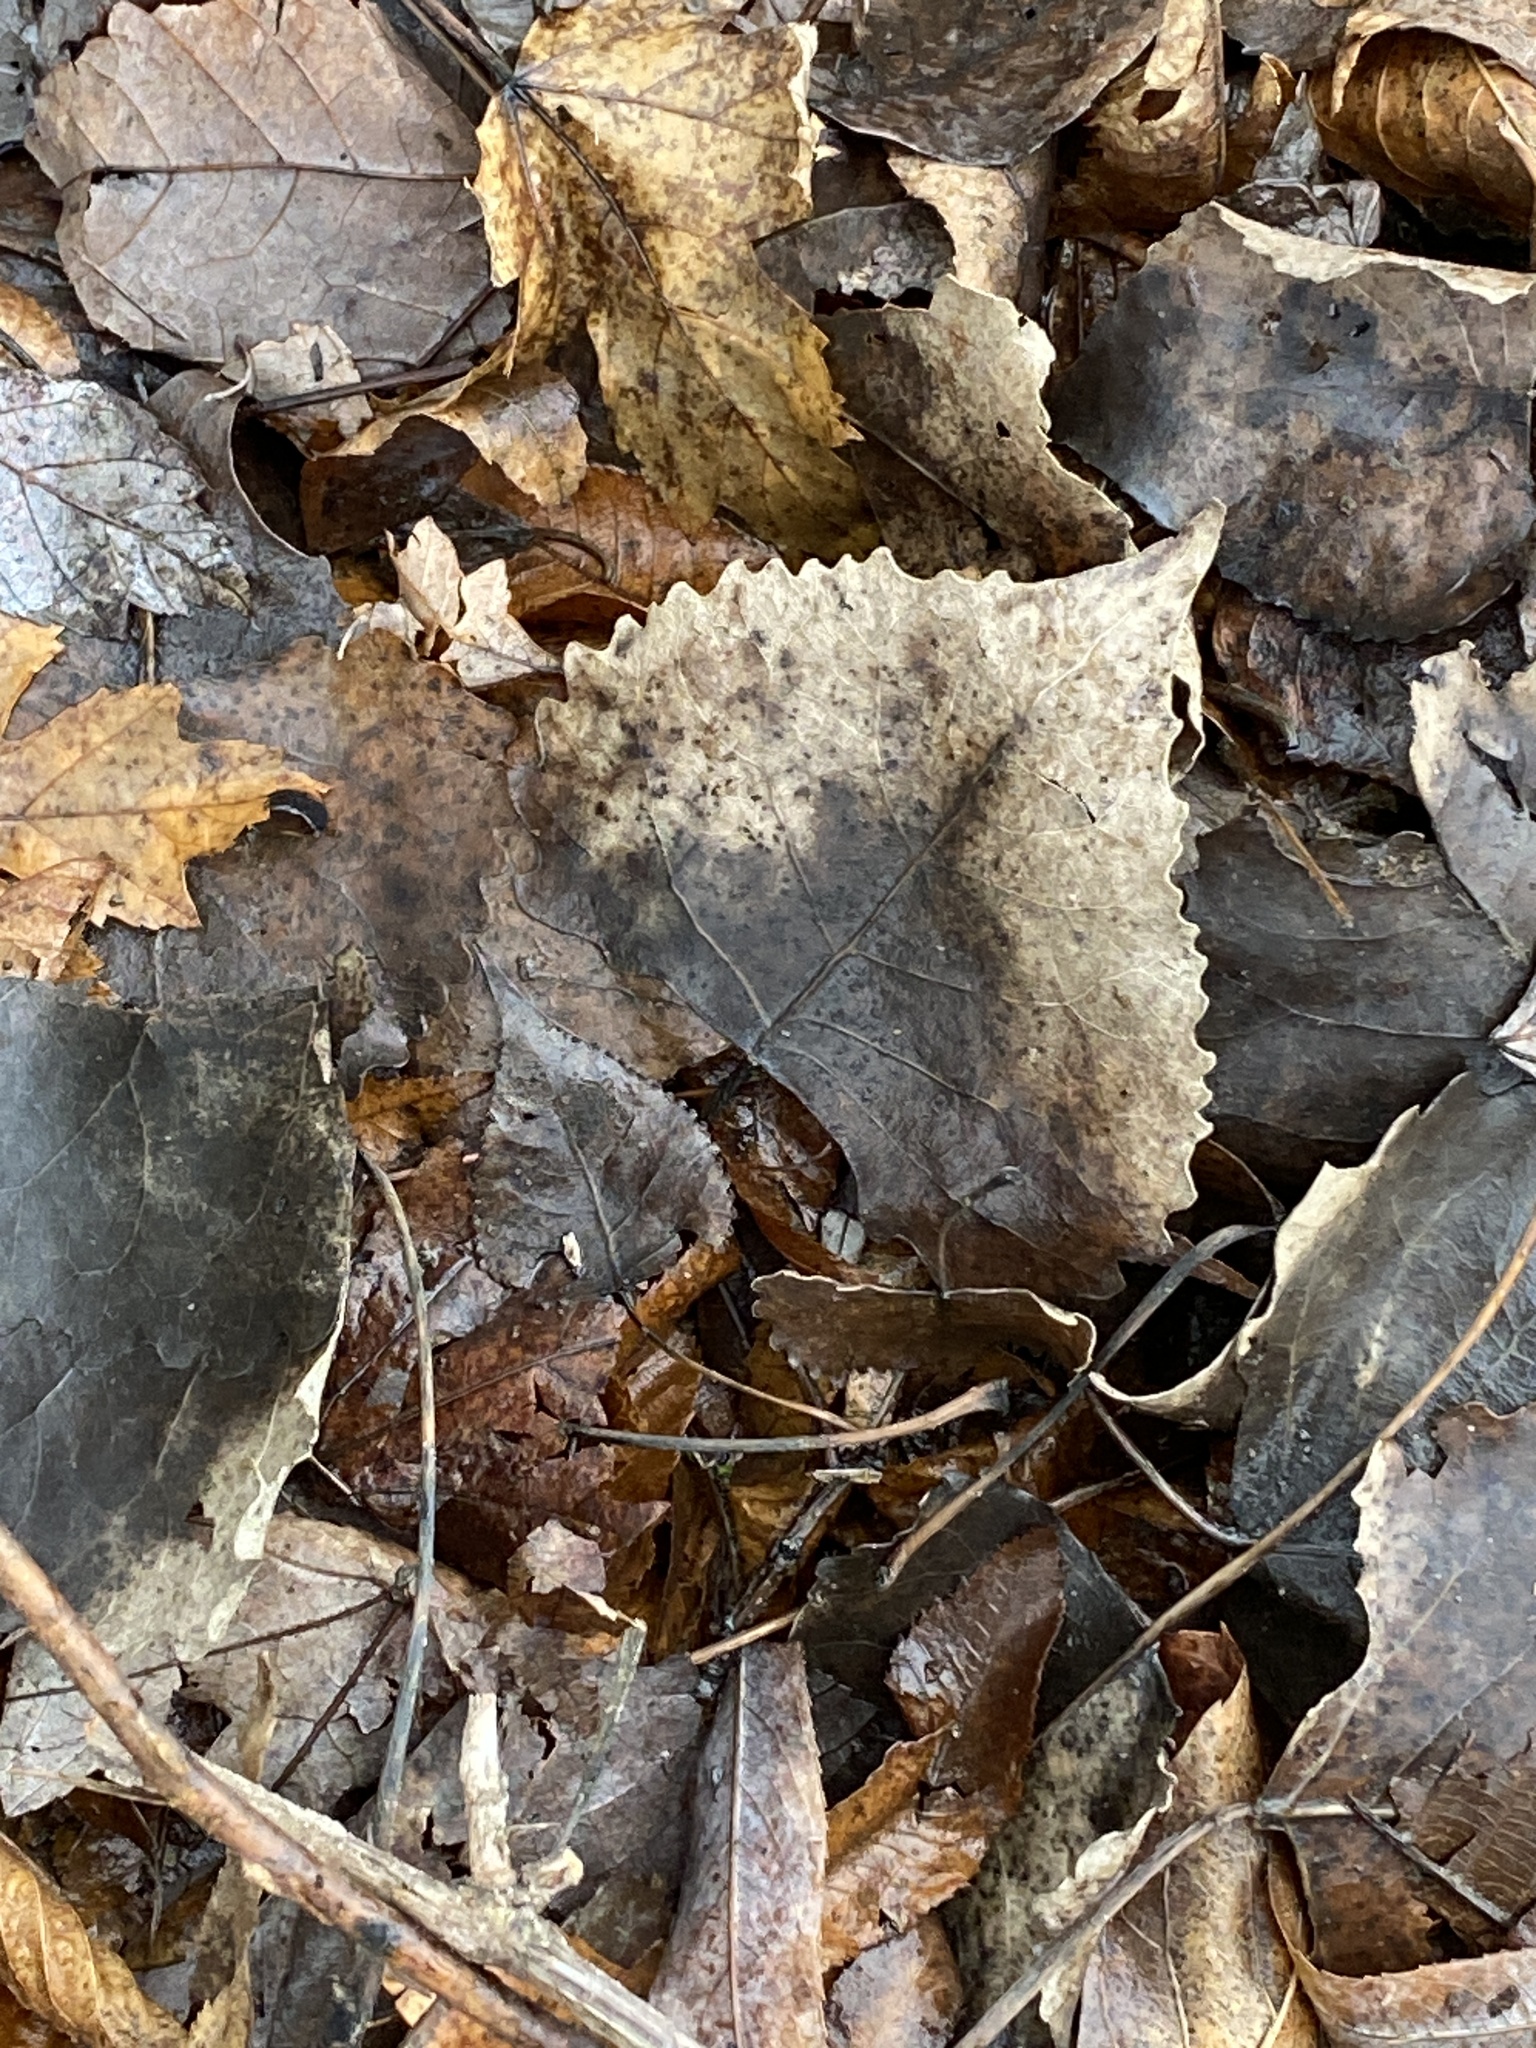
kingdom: Plantae
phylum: Tracheophyta
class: Magnoliopsida
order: Malpighiales
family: Salicaceae
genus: Populus
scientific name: Populus deltoides
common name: Eastern cottonwood
